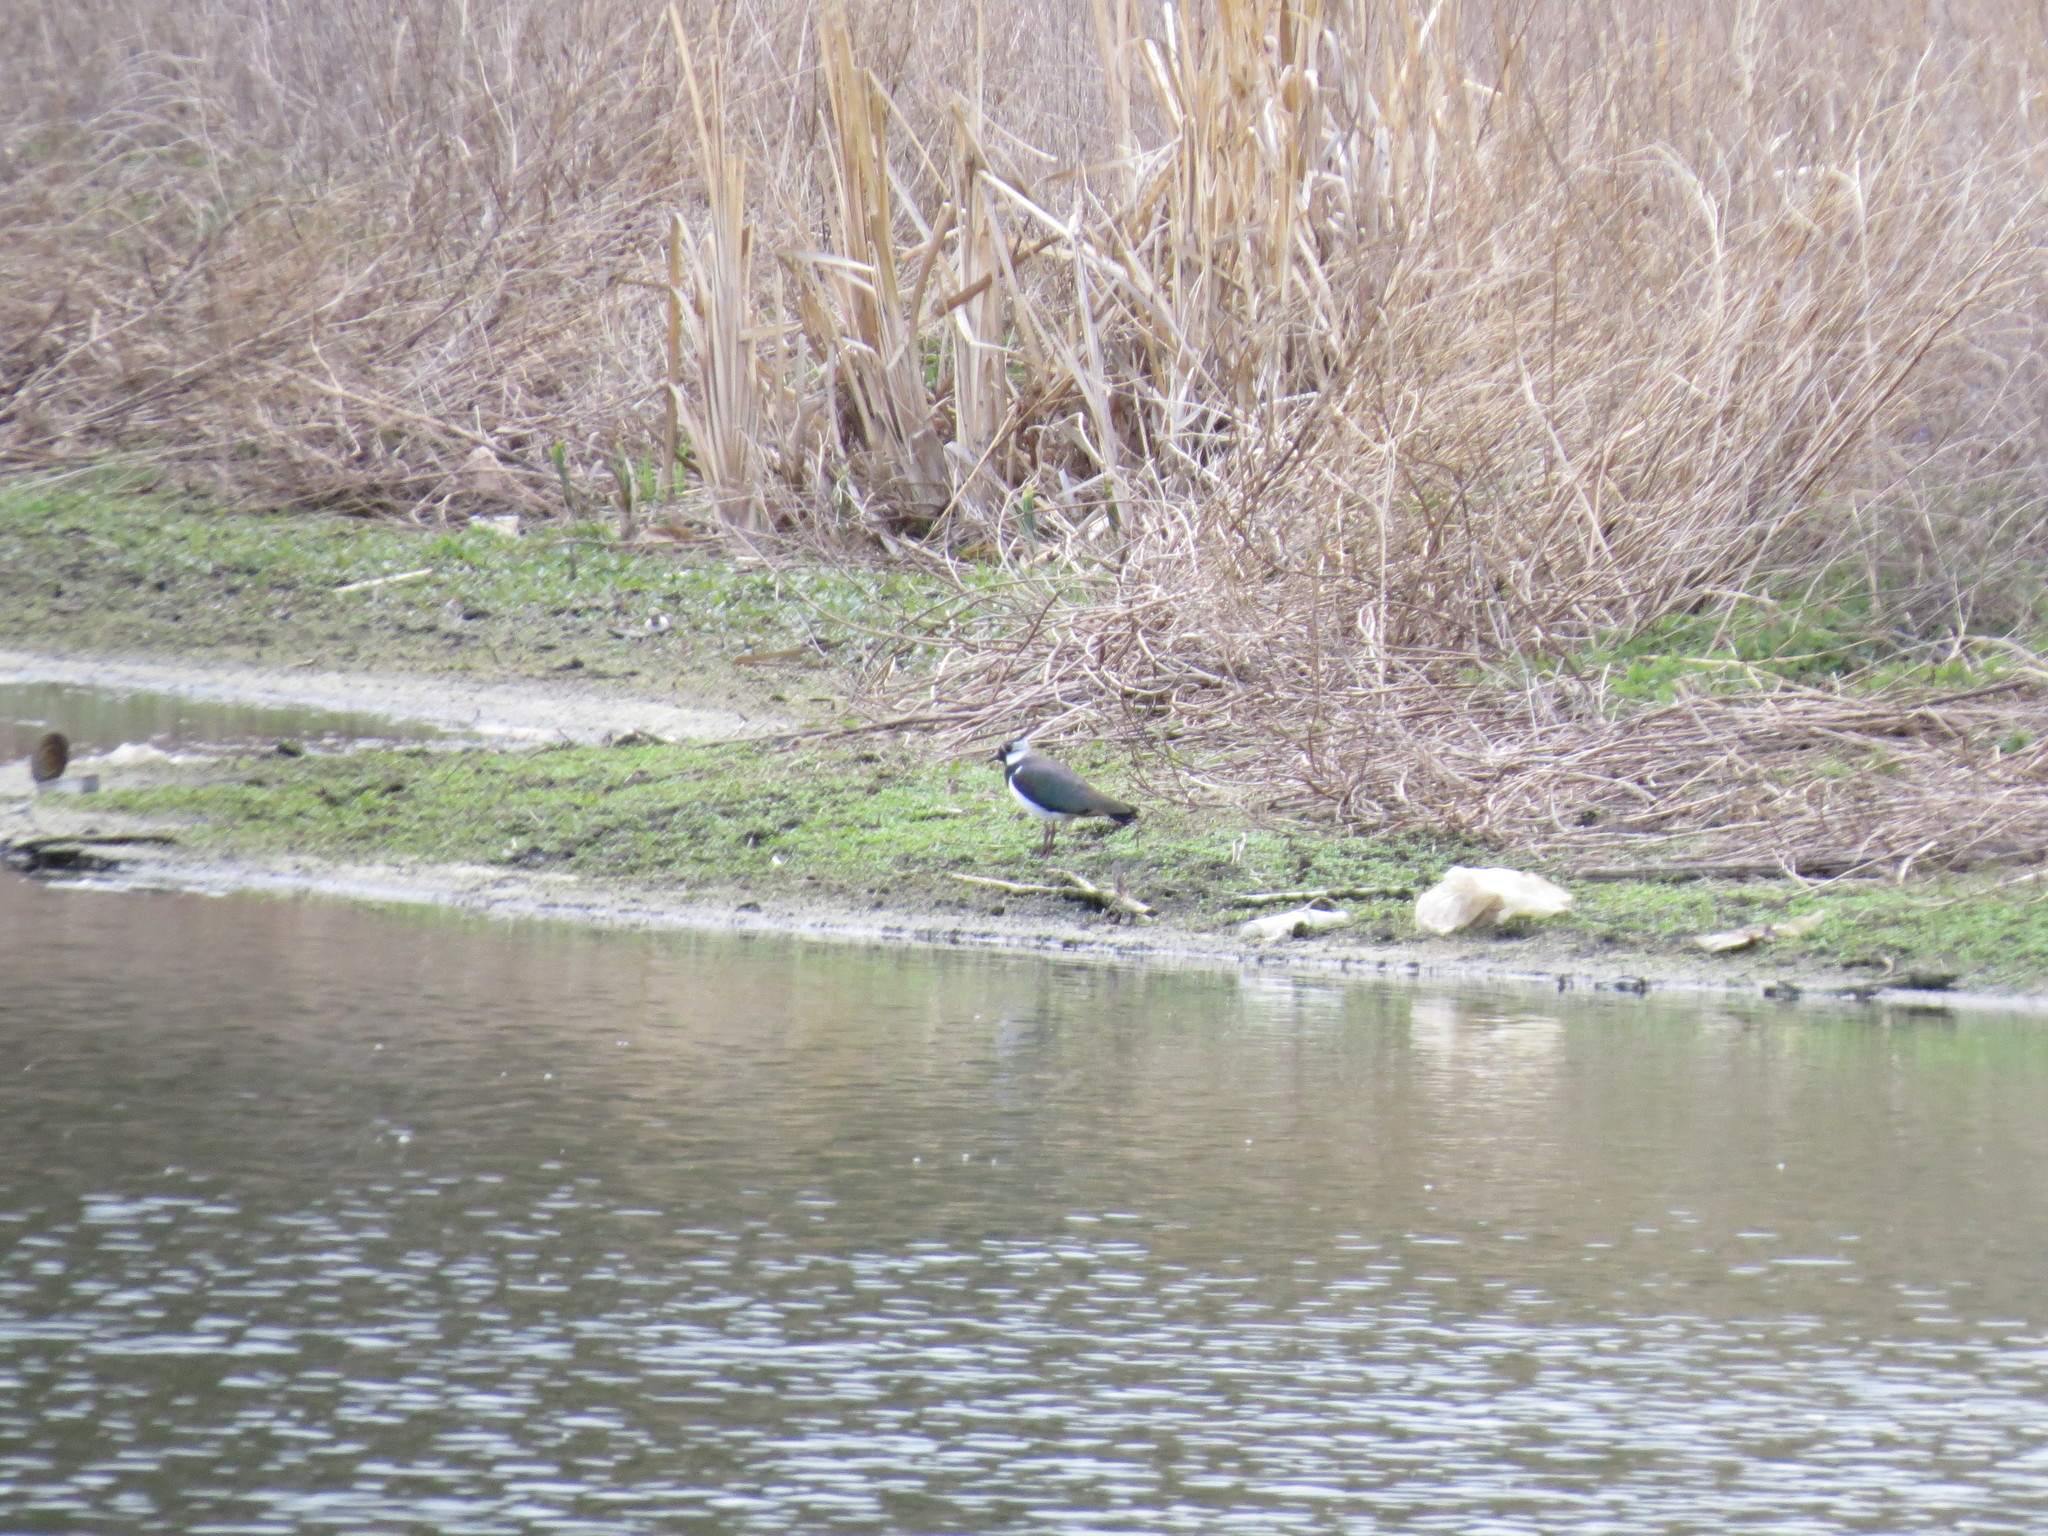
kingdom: Animalia
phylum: Chordata
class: Aves
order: Charadriiformes
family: Charadriidae
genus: Vanellus
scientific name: Vanellus vanellus
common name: Northern lapwing
